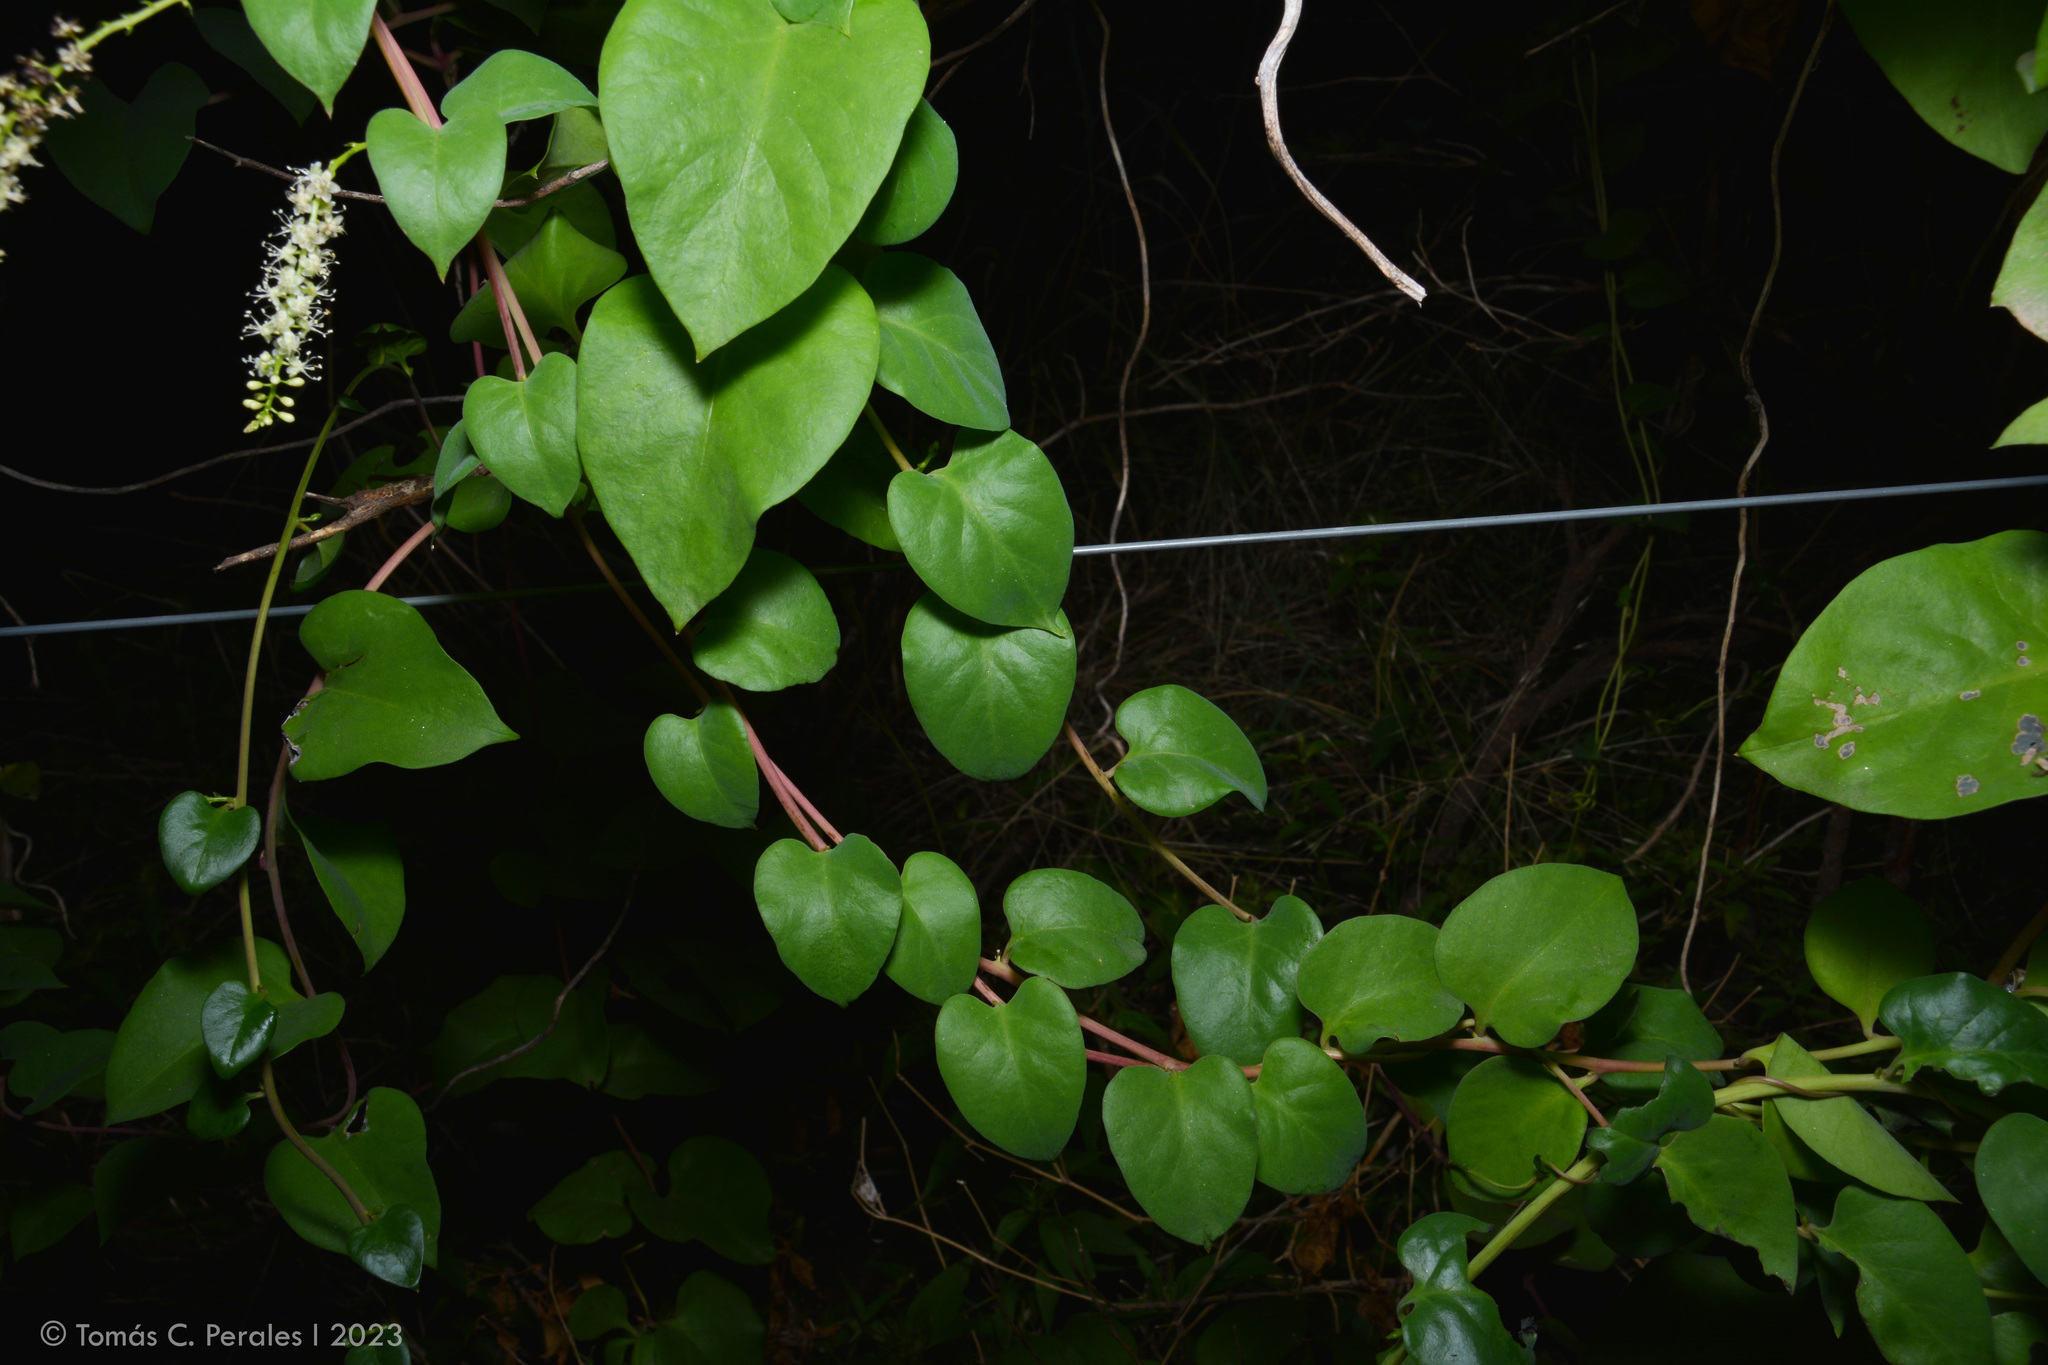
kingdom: Plantae
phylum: Tracheophyta
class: Magnoliopsida
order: Caryophyllales
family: Basellaceae
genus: Anredera
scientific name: Anredera cordifolia
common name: Heartleaf madeiravine
